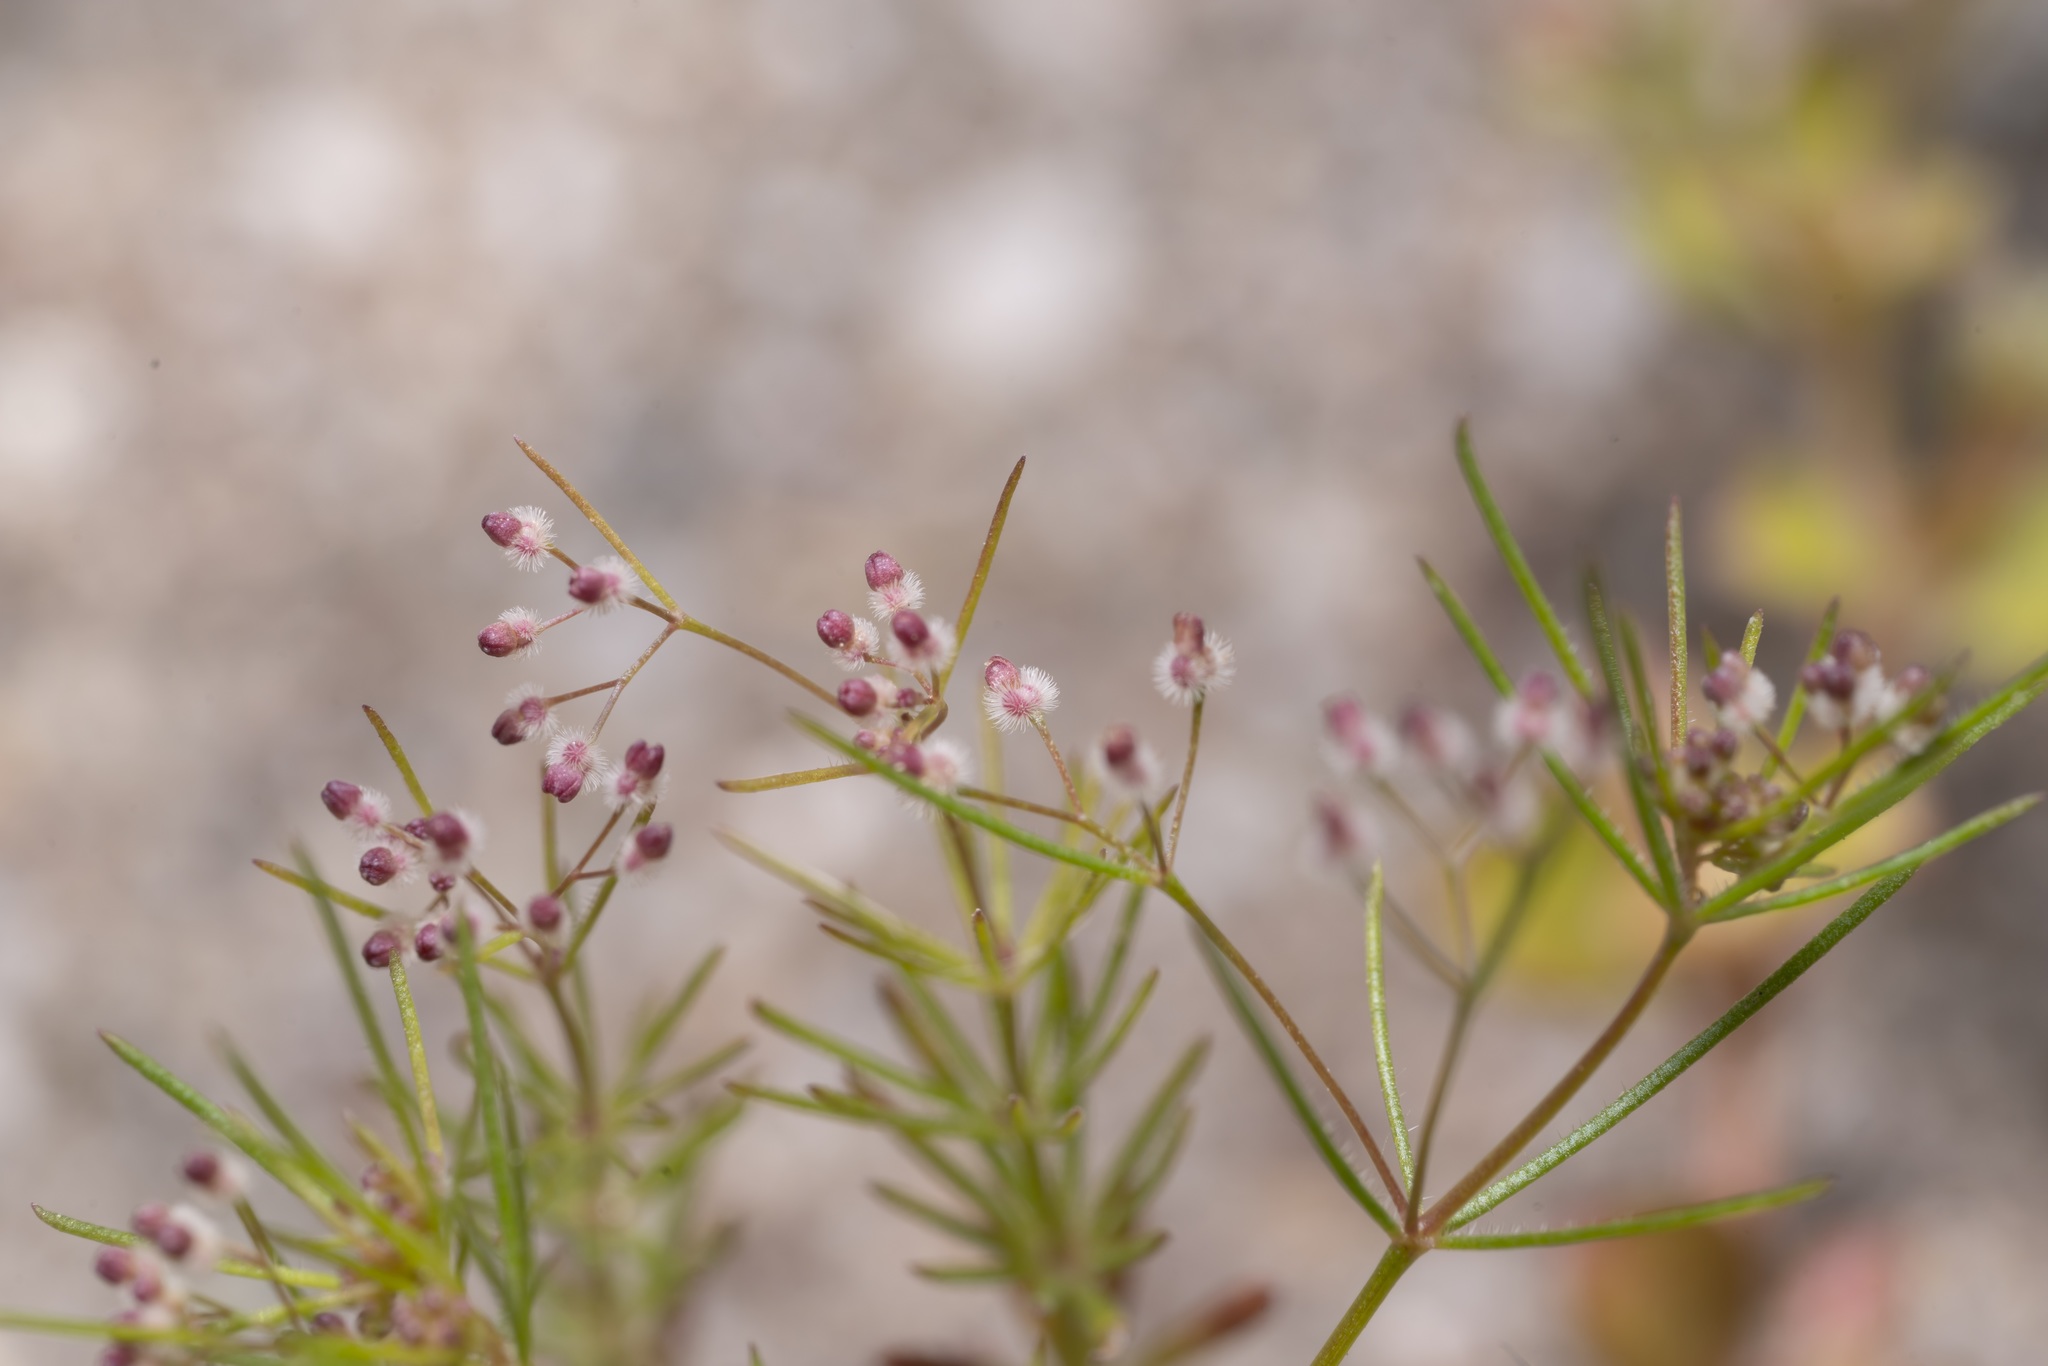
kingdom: Plantae
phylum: Tracheophyta
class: Magnoliopsida
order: Gentianales
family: Rubiaceae
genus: Galium
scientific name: Galium setaceum
